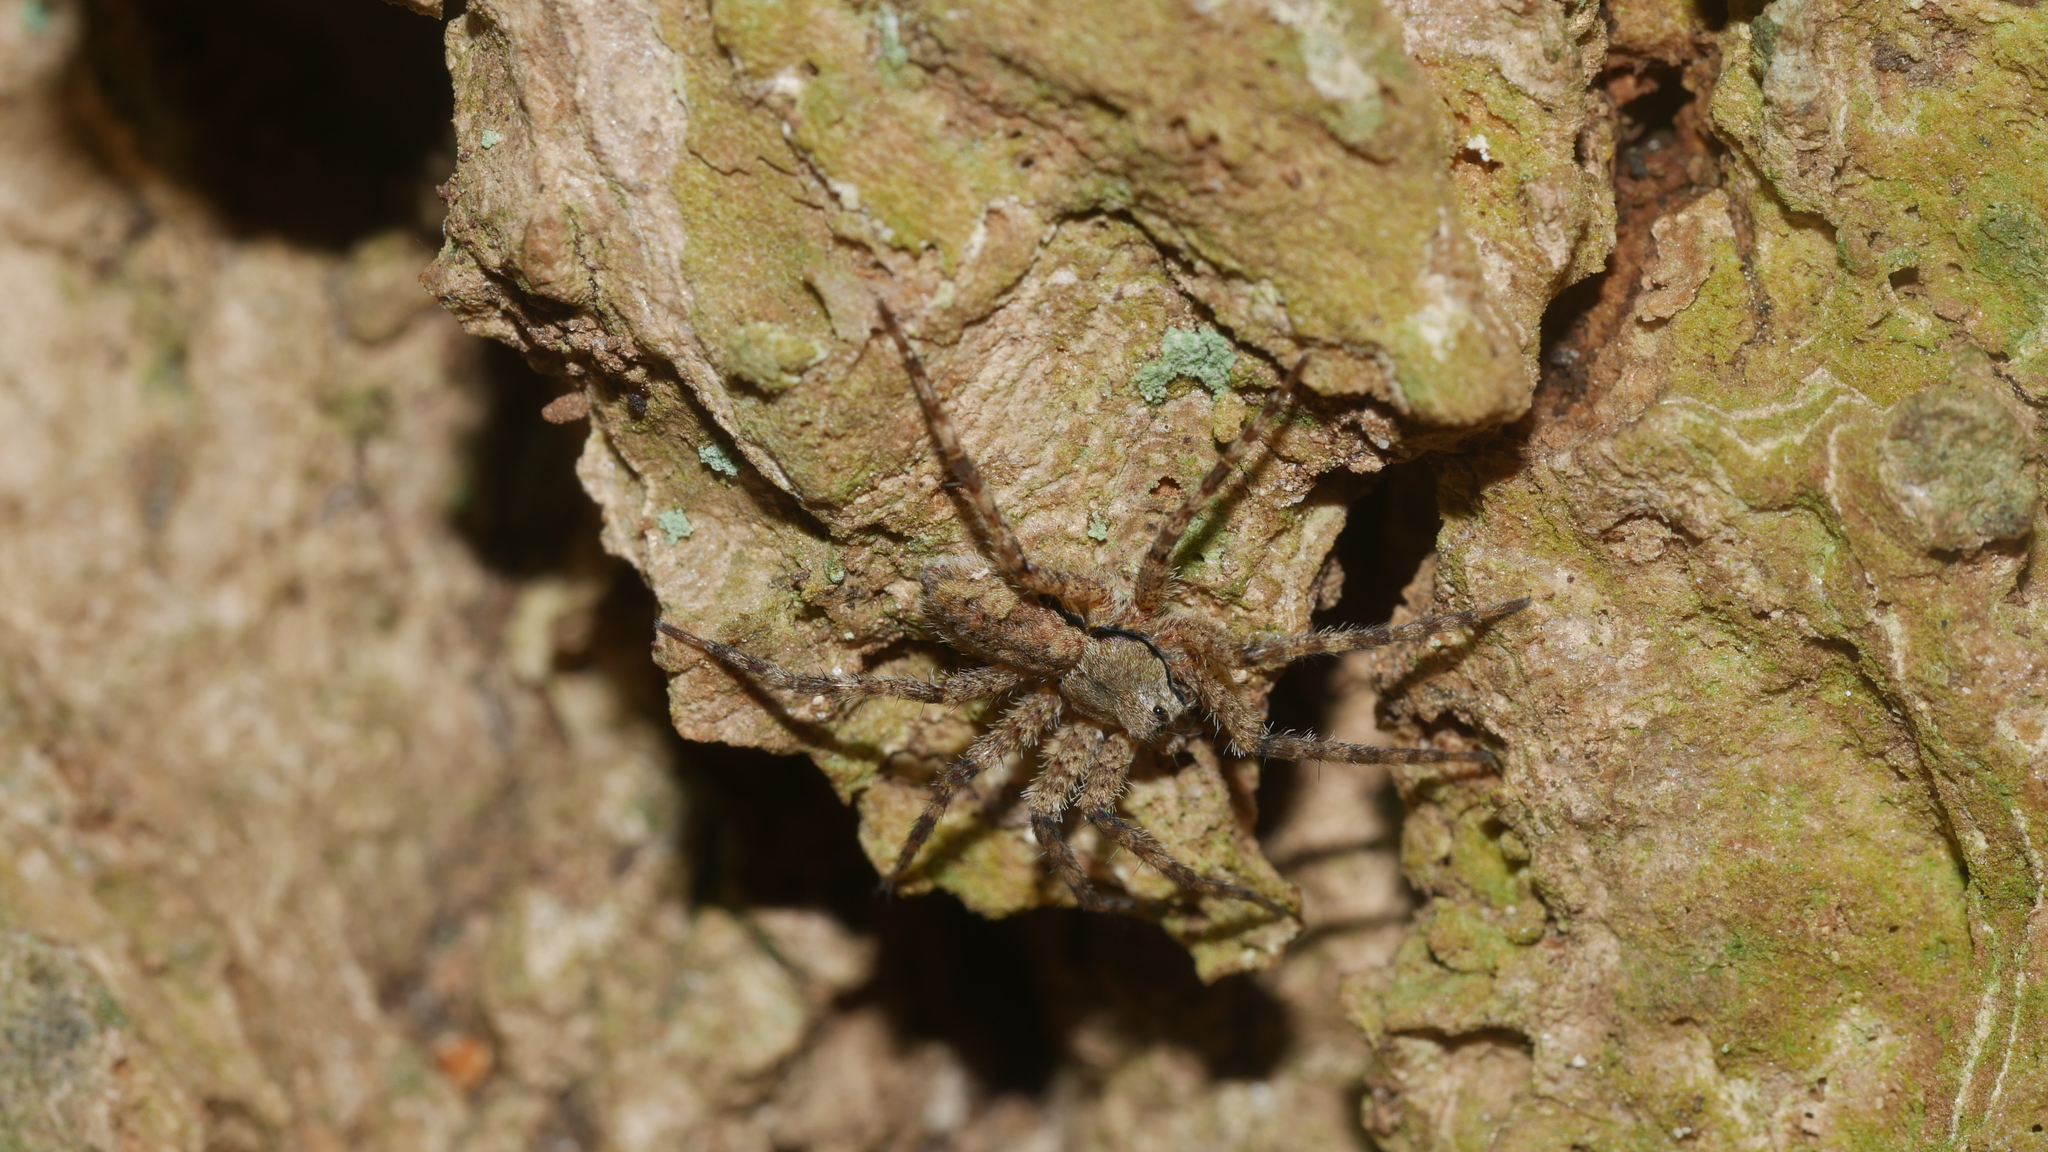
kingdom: Animalia
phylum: Arthropoda
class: Arachnida
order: Araneae
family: Pisauridae
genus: Dolomedes
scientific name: Dolomedes albineus
